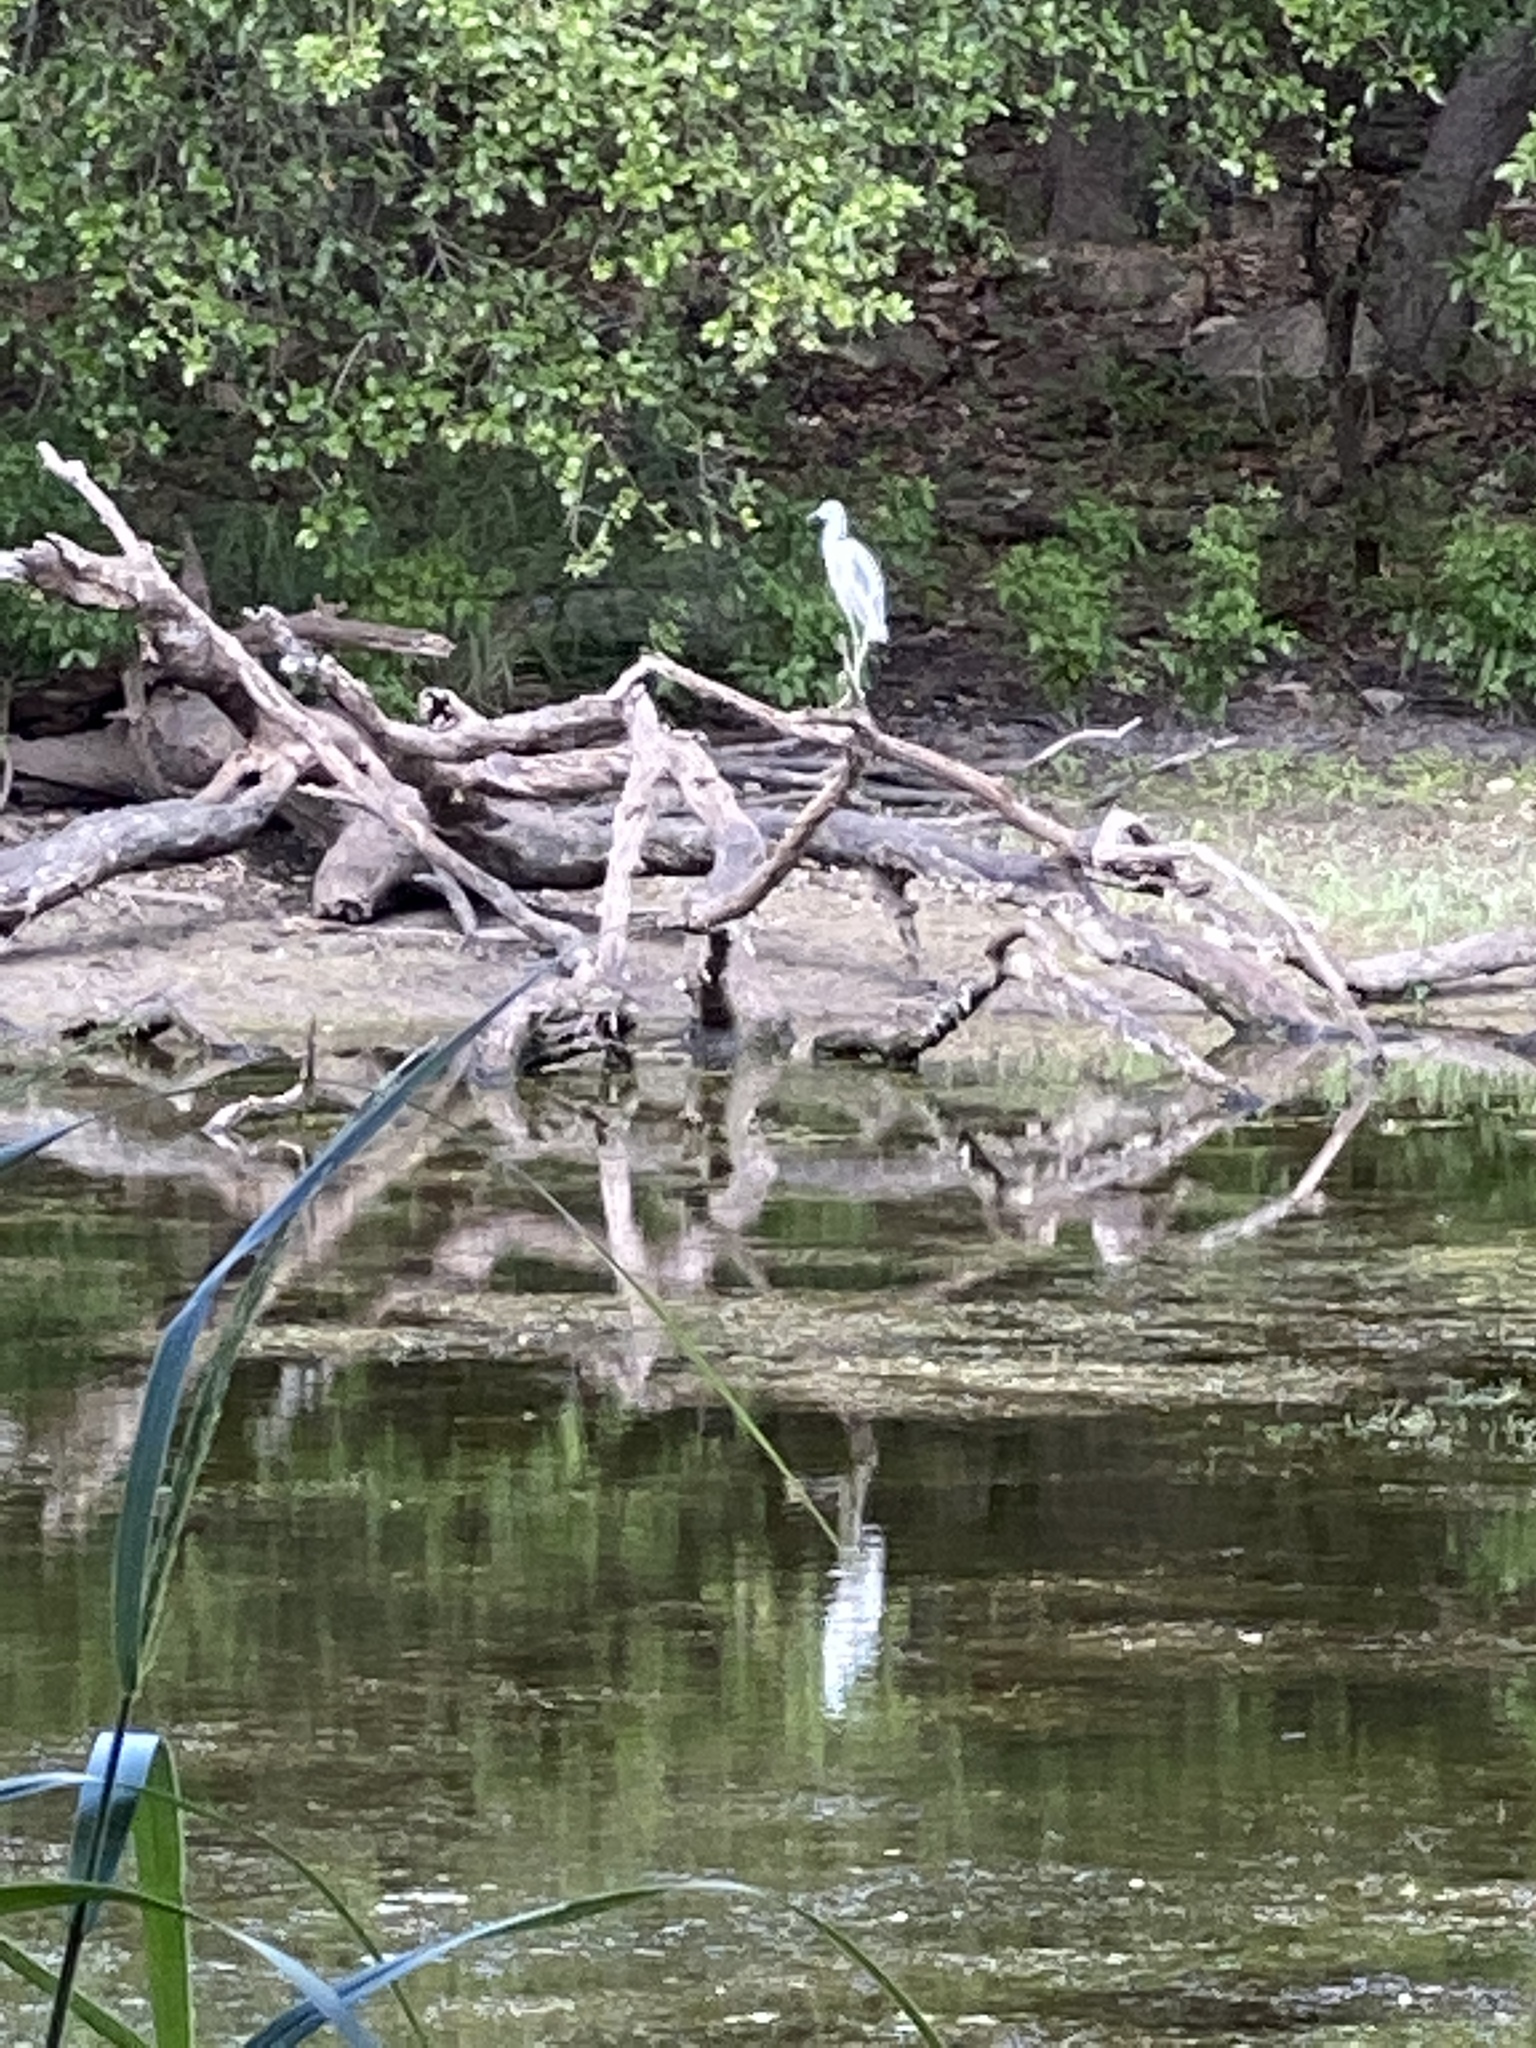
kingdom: Animalia
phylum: Chordata
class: Aves
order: Pelecaniformes
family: Ardeidae
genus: Egretta
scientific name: Egretta caerulea
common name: Little blue heron
